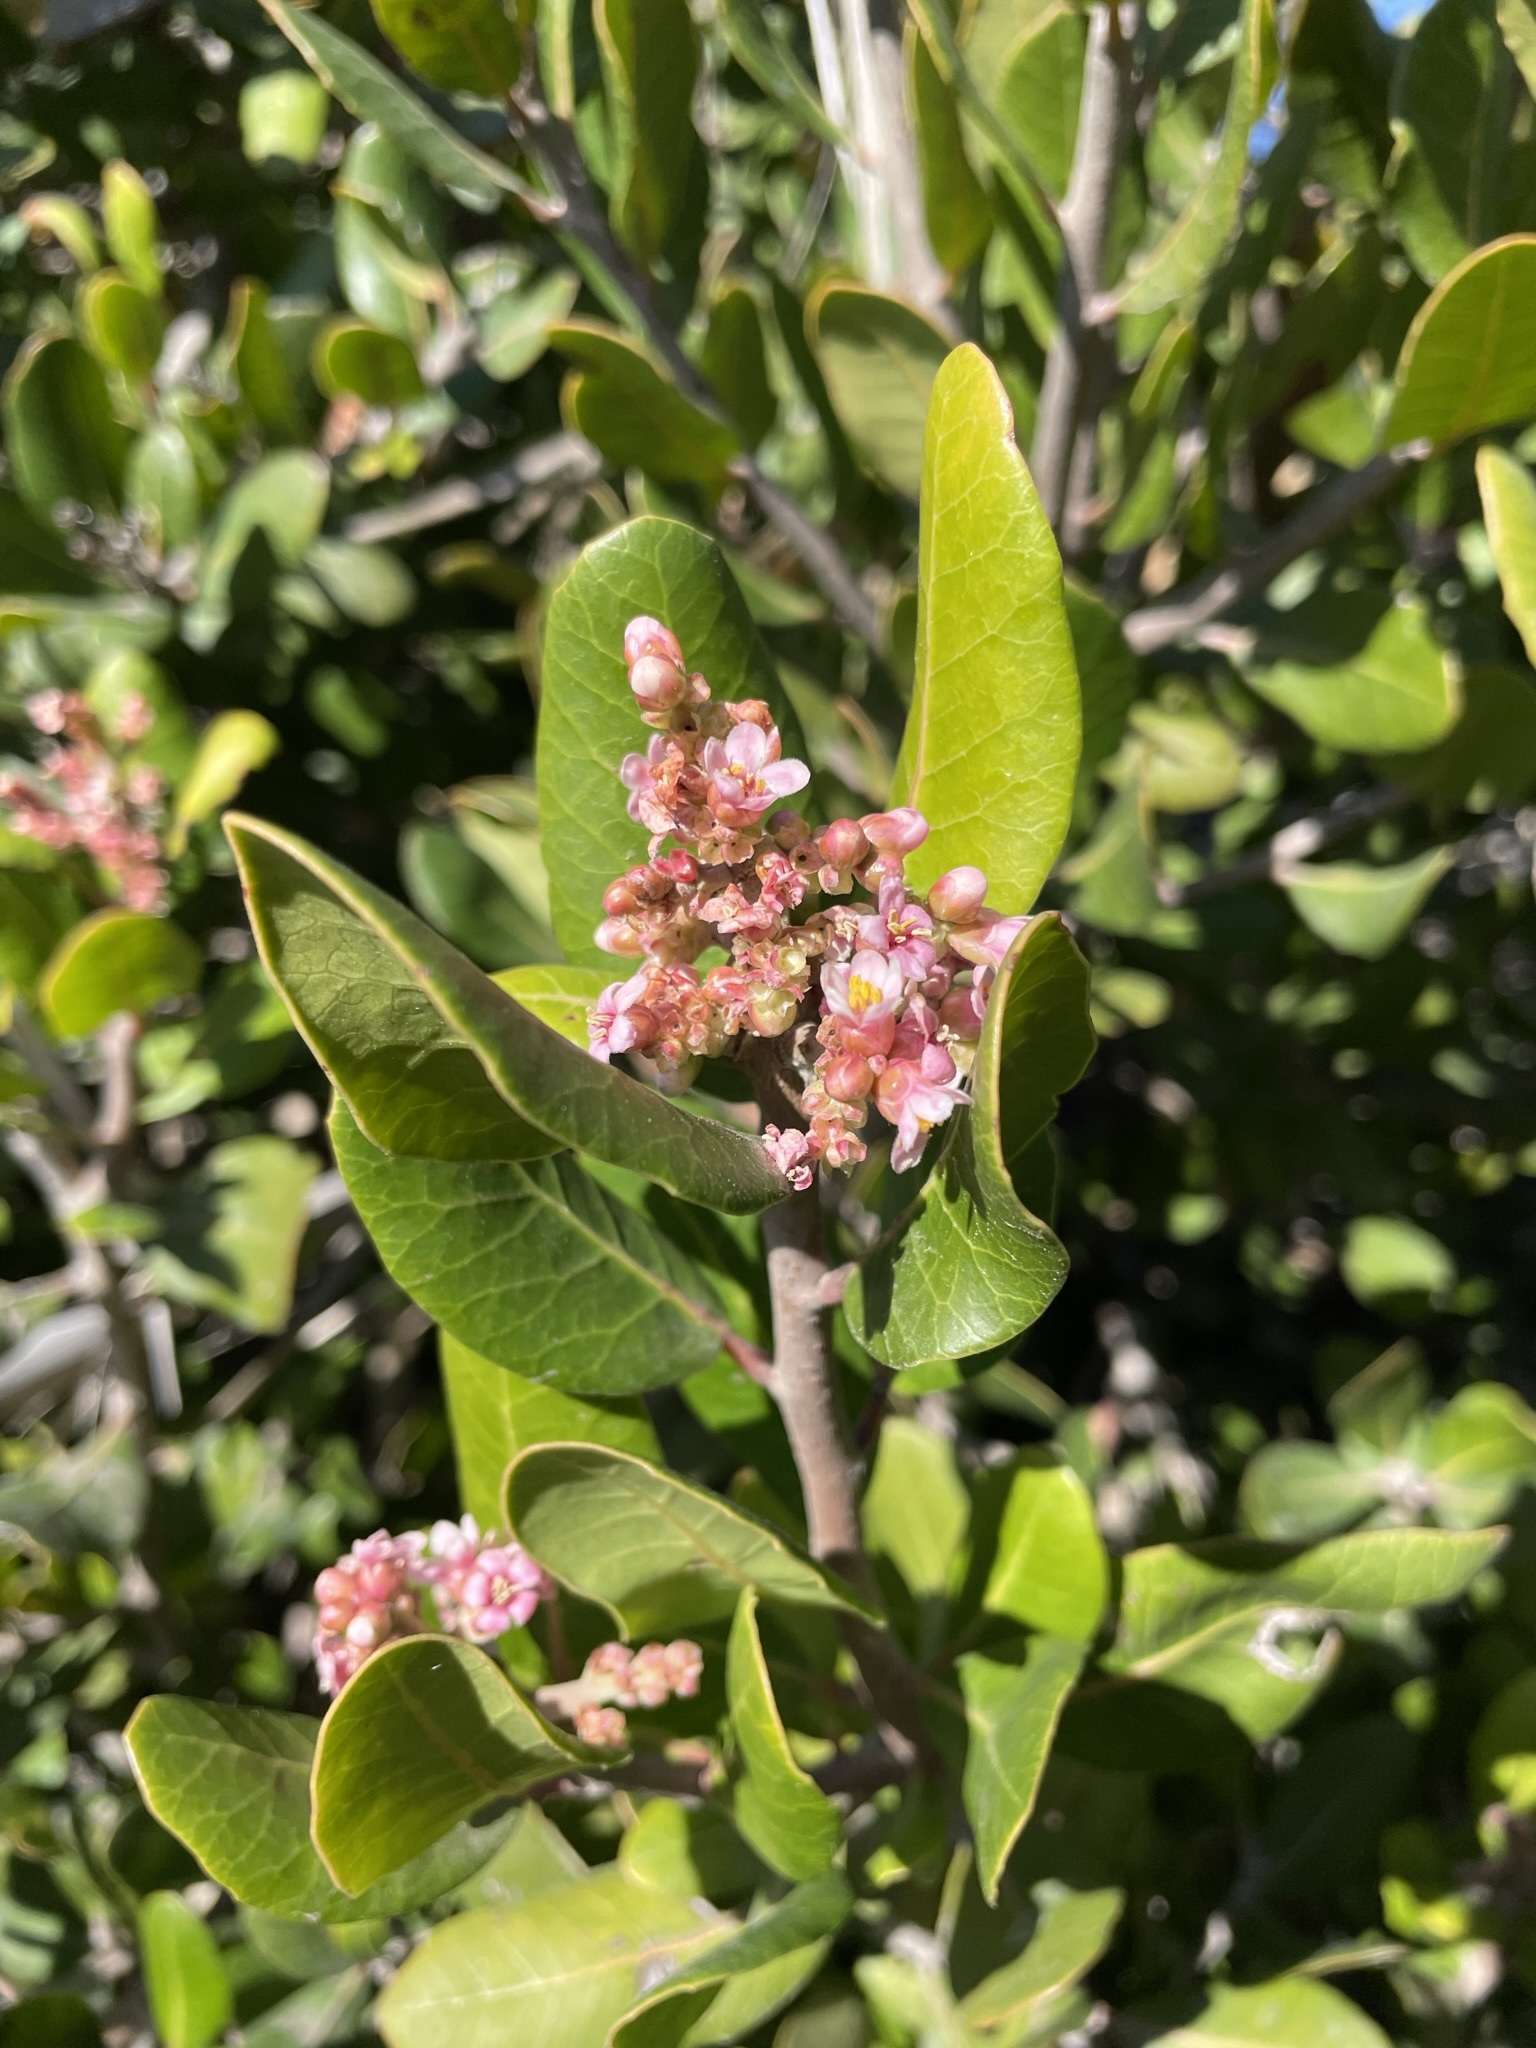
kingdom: Plantae
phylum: Tracheophyta
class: Magnoliopsida
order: Sapindales
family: Anacardiaceae
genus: Rhus
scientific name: Rhus integrifolia
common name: Lemonade sumac
